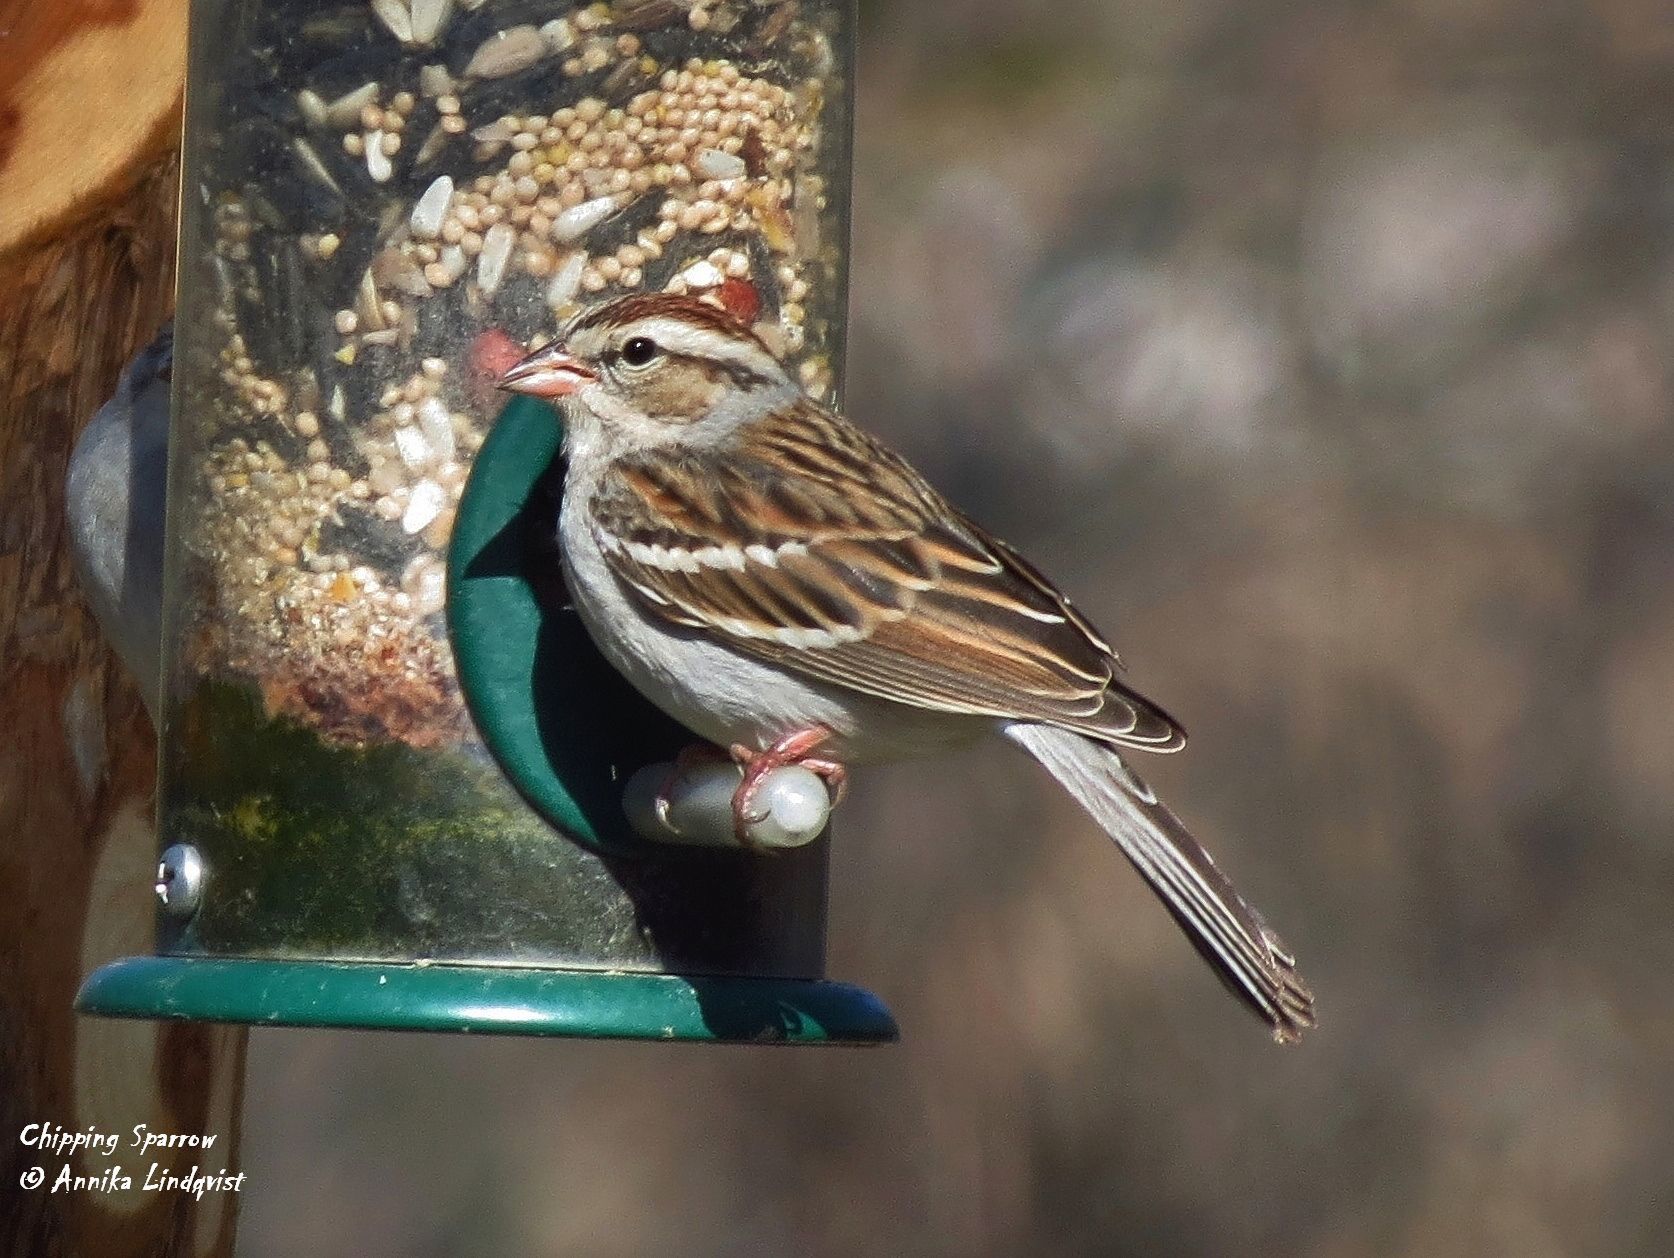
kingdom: Animalia
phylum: Chordata
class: Aves
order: Passeriformes
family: Passerellidae
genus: Spizella
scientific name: Spizella passerina
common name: Chipping sparrow
